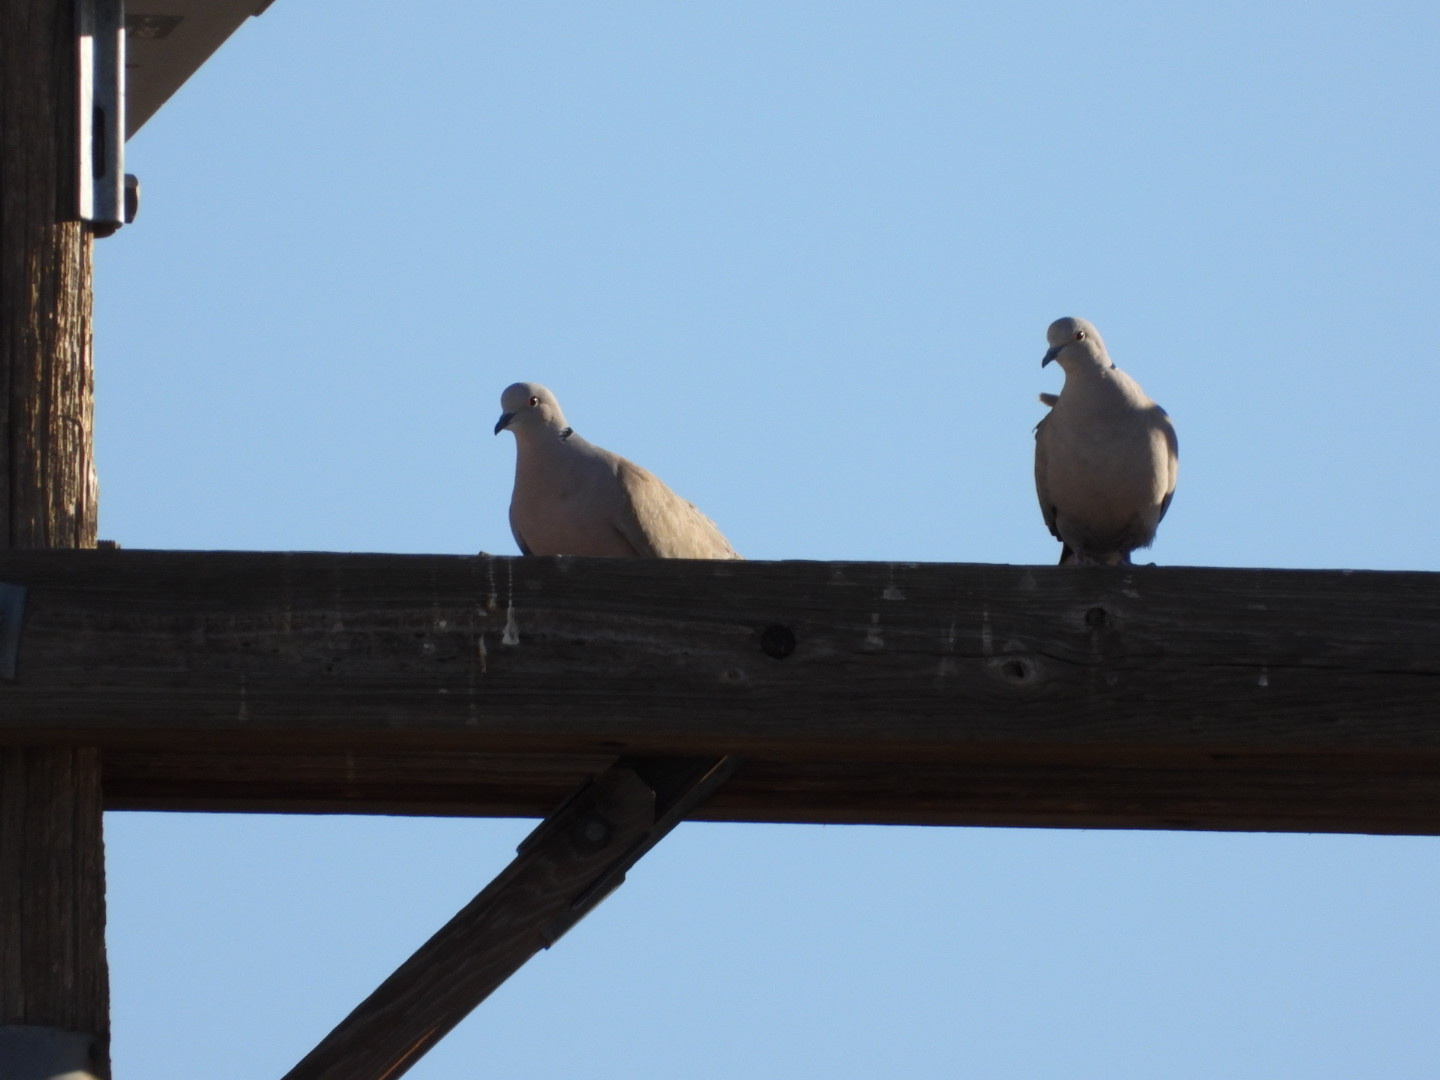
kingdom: Animalia
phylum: Chordata
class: Aves
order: Columbiformes
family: Columbidae
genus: Streptopelia
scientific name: Streptopelia decaocto
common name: Eurasian collared dove
